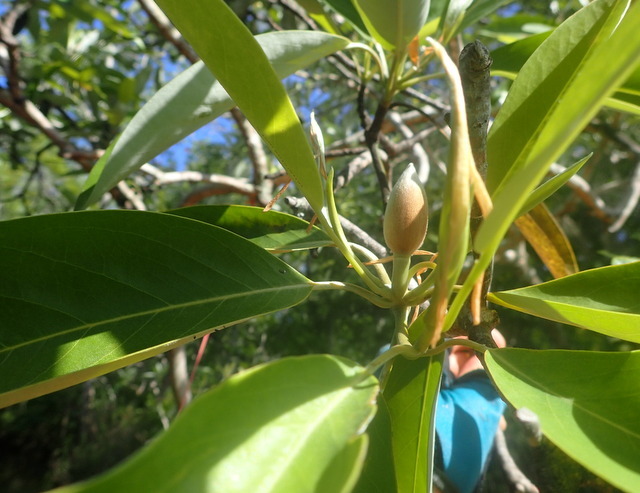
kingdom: Plantae
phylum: Tracheophyta
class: Magnoliopsida
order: Magnoliales
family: Magnoliaceae
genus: Magnolia
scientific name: Magnolia virginiana
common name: Swamp bay
